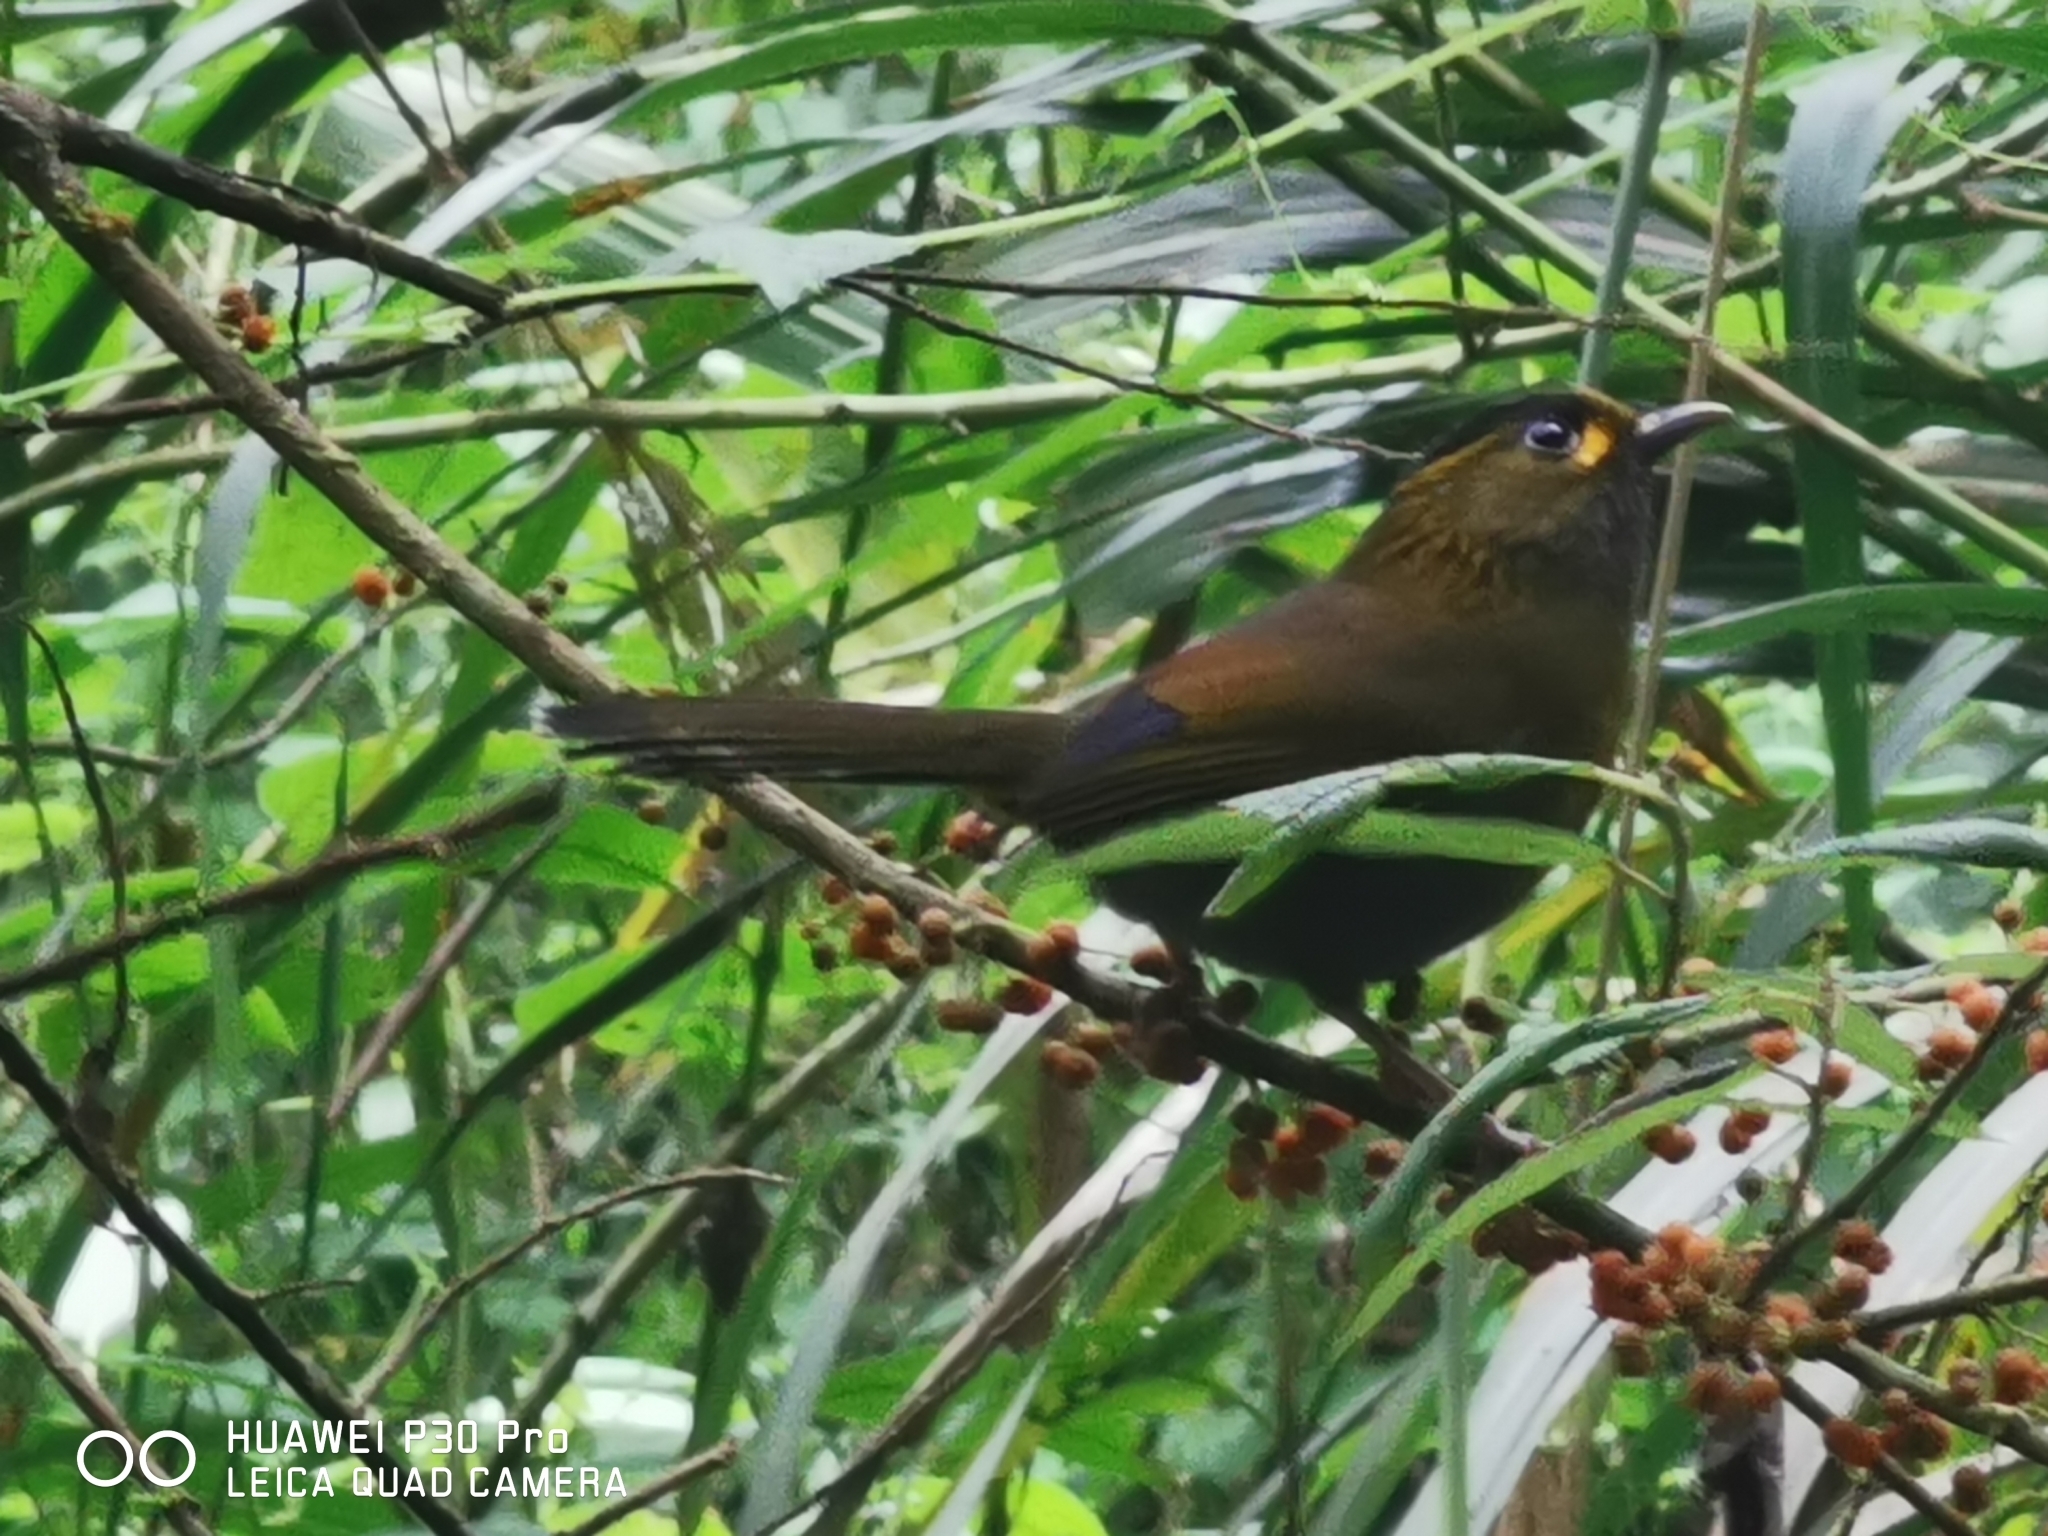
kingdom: Animalia
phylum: Chordata
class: Aves
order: Passeriformes
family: Leiothrichidae
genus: Liocichla
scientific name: Liocichla steerii
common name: Steere's liocichla
